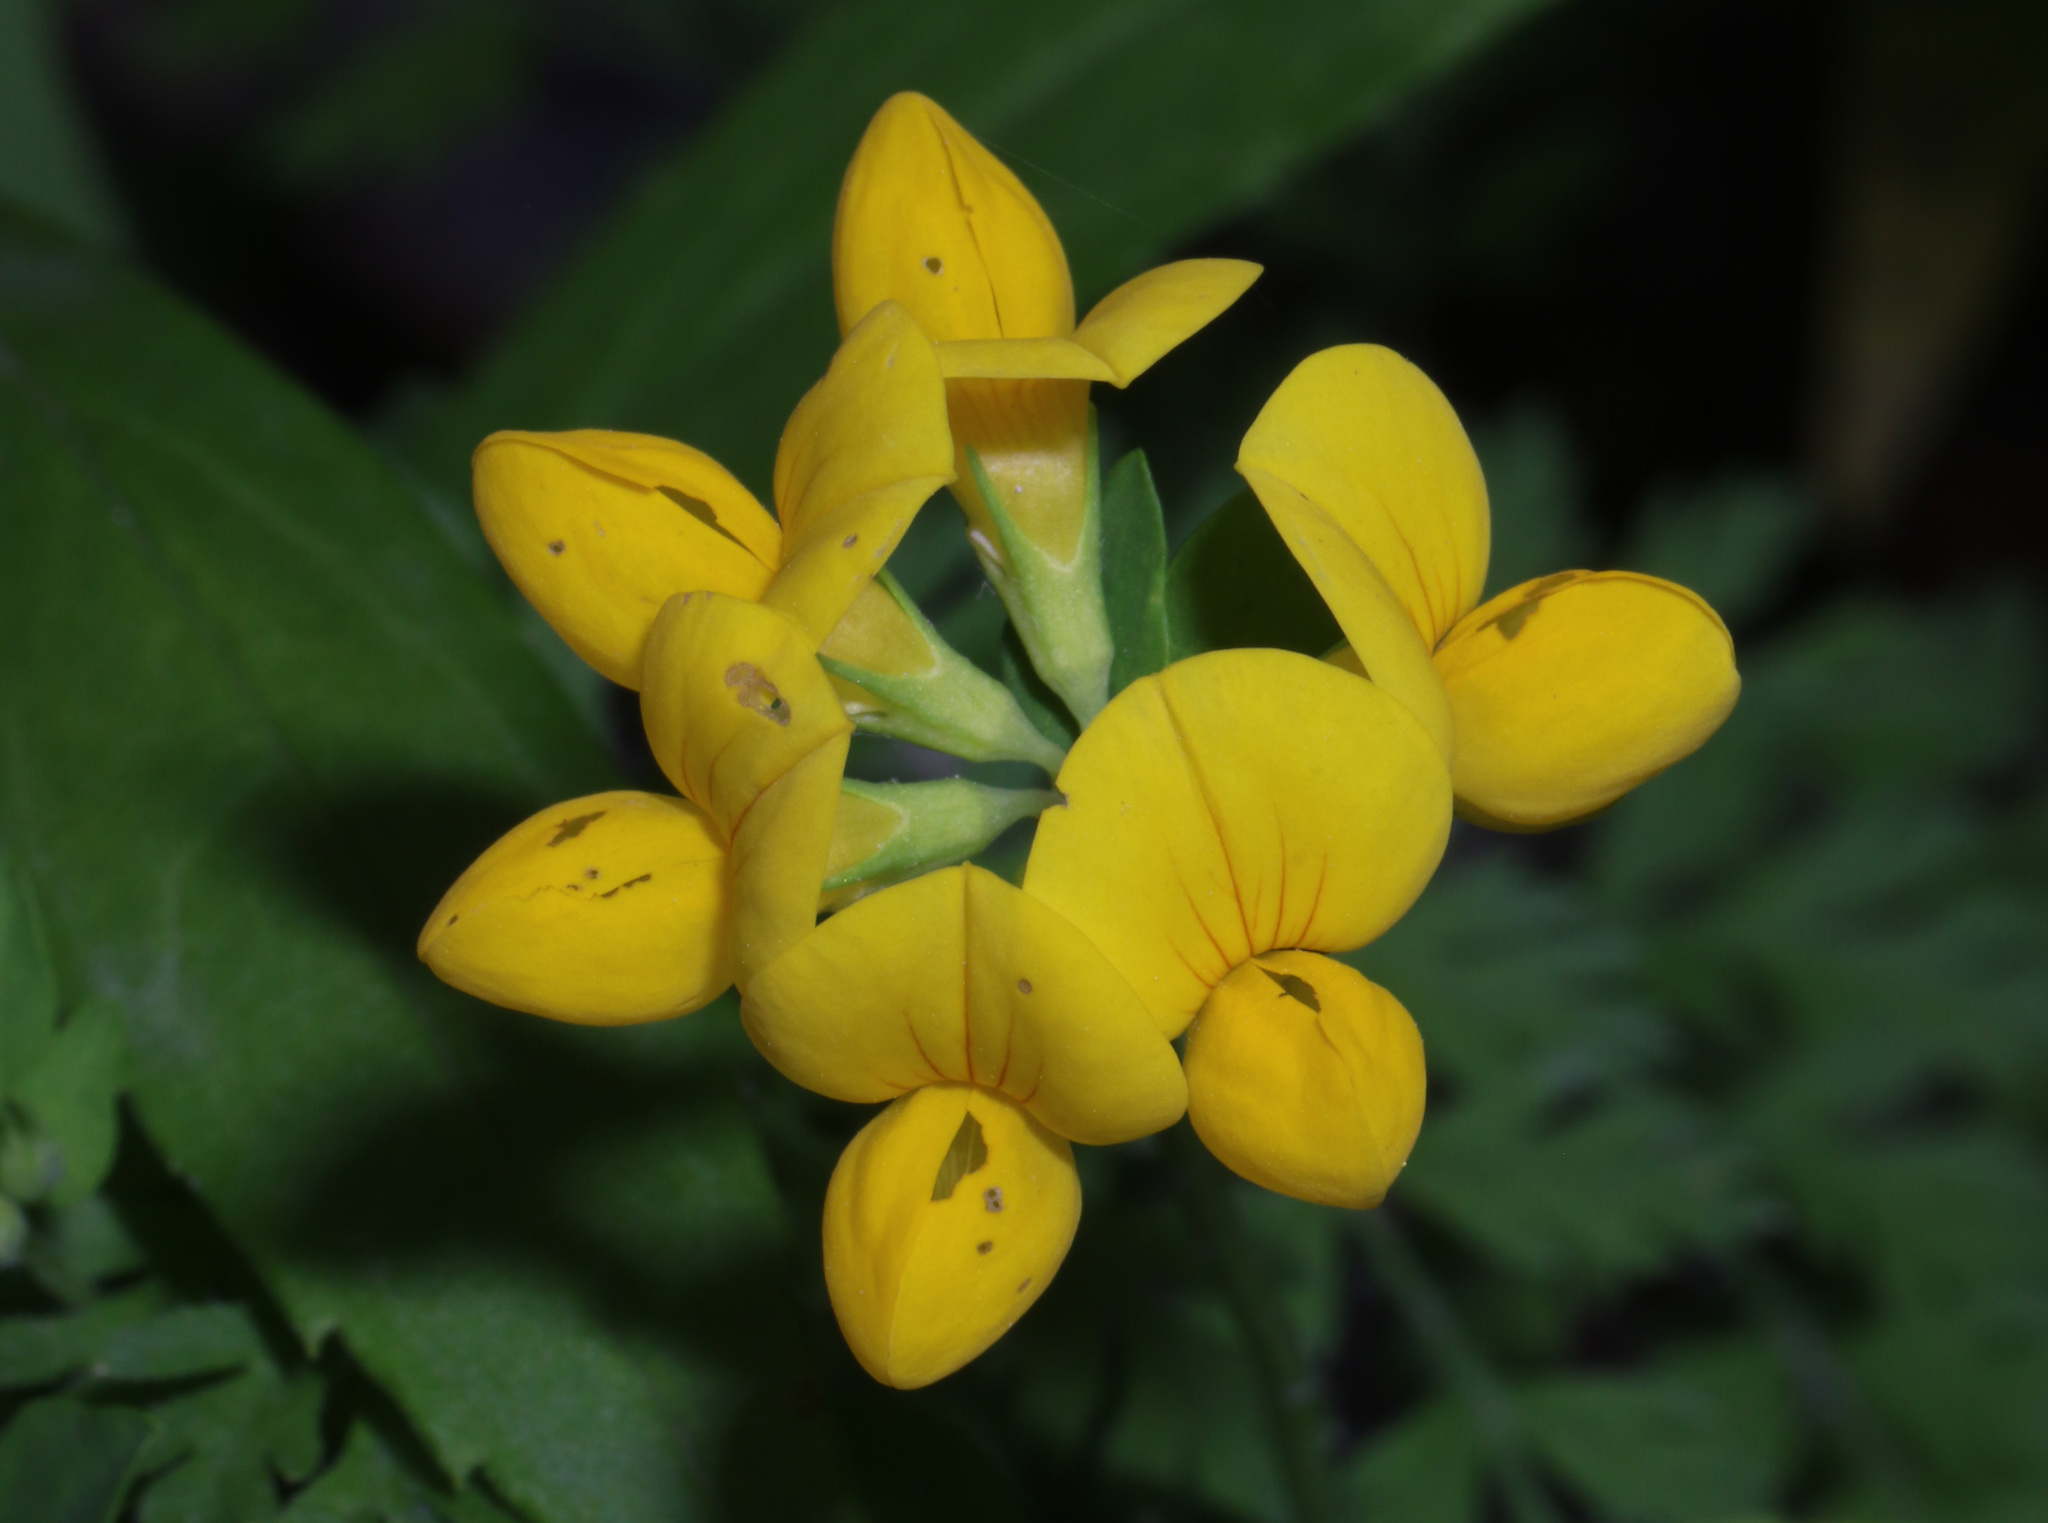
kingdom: Plantae
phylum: Tracheophyta
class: Magnoliopsida
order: Fabales
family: Fabaceae
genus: Lotus
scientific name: Lotus corniculatus
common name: Common bird's-foot-trefoil
